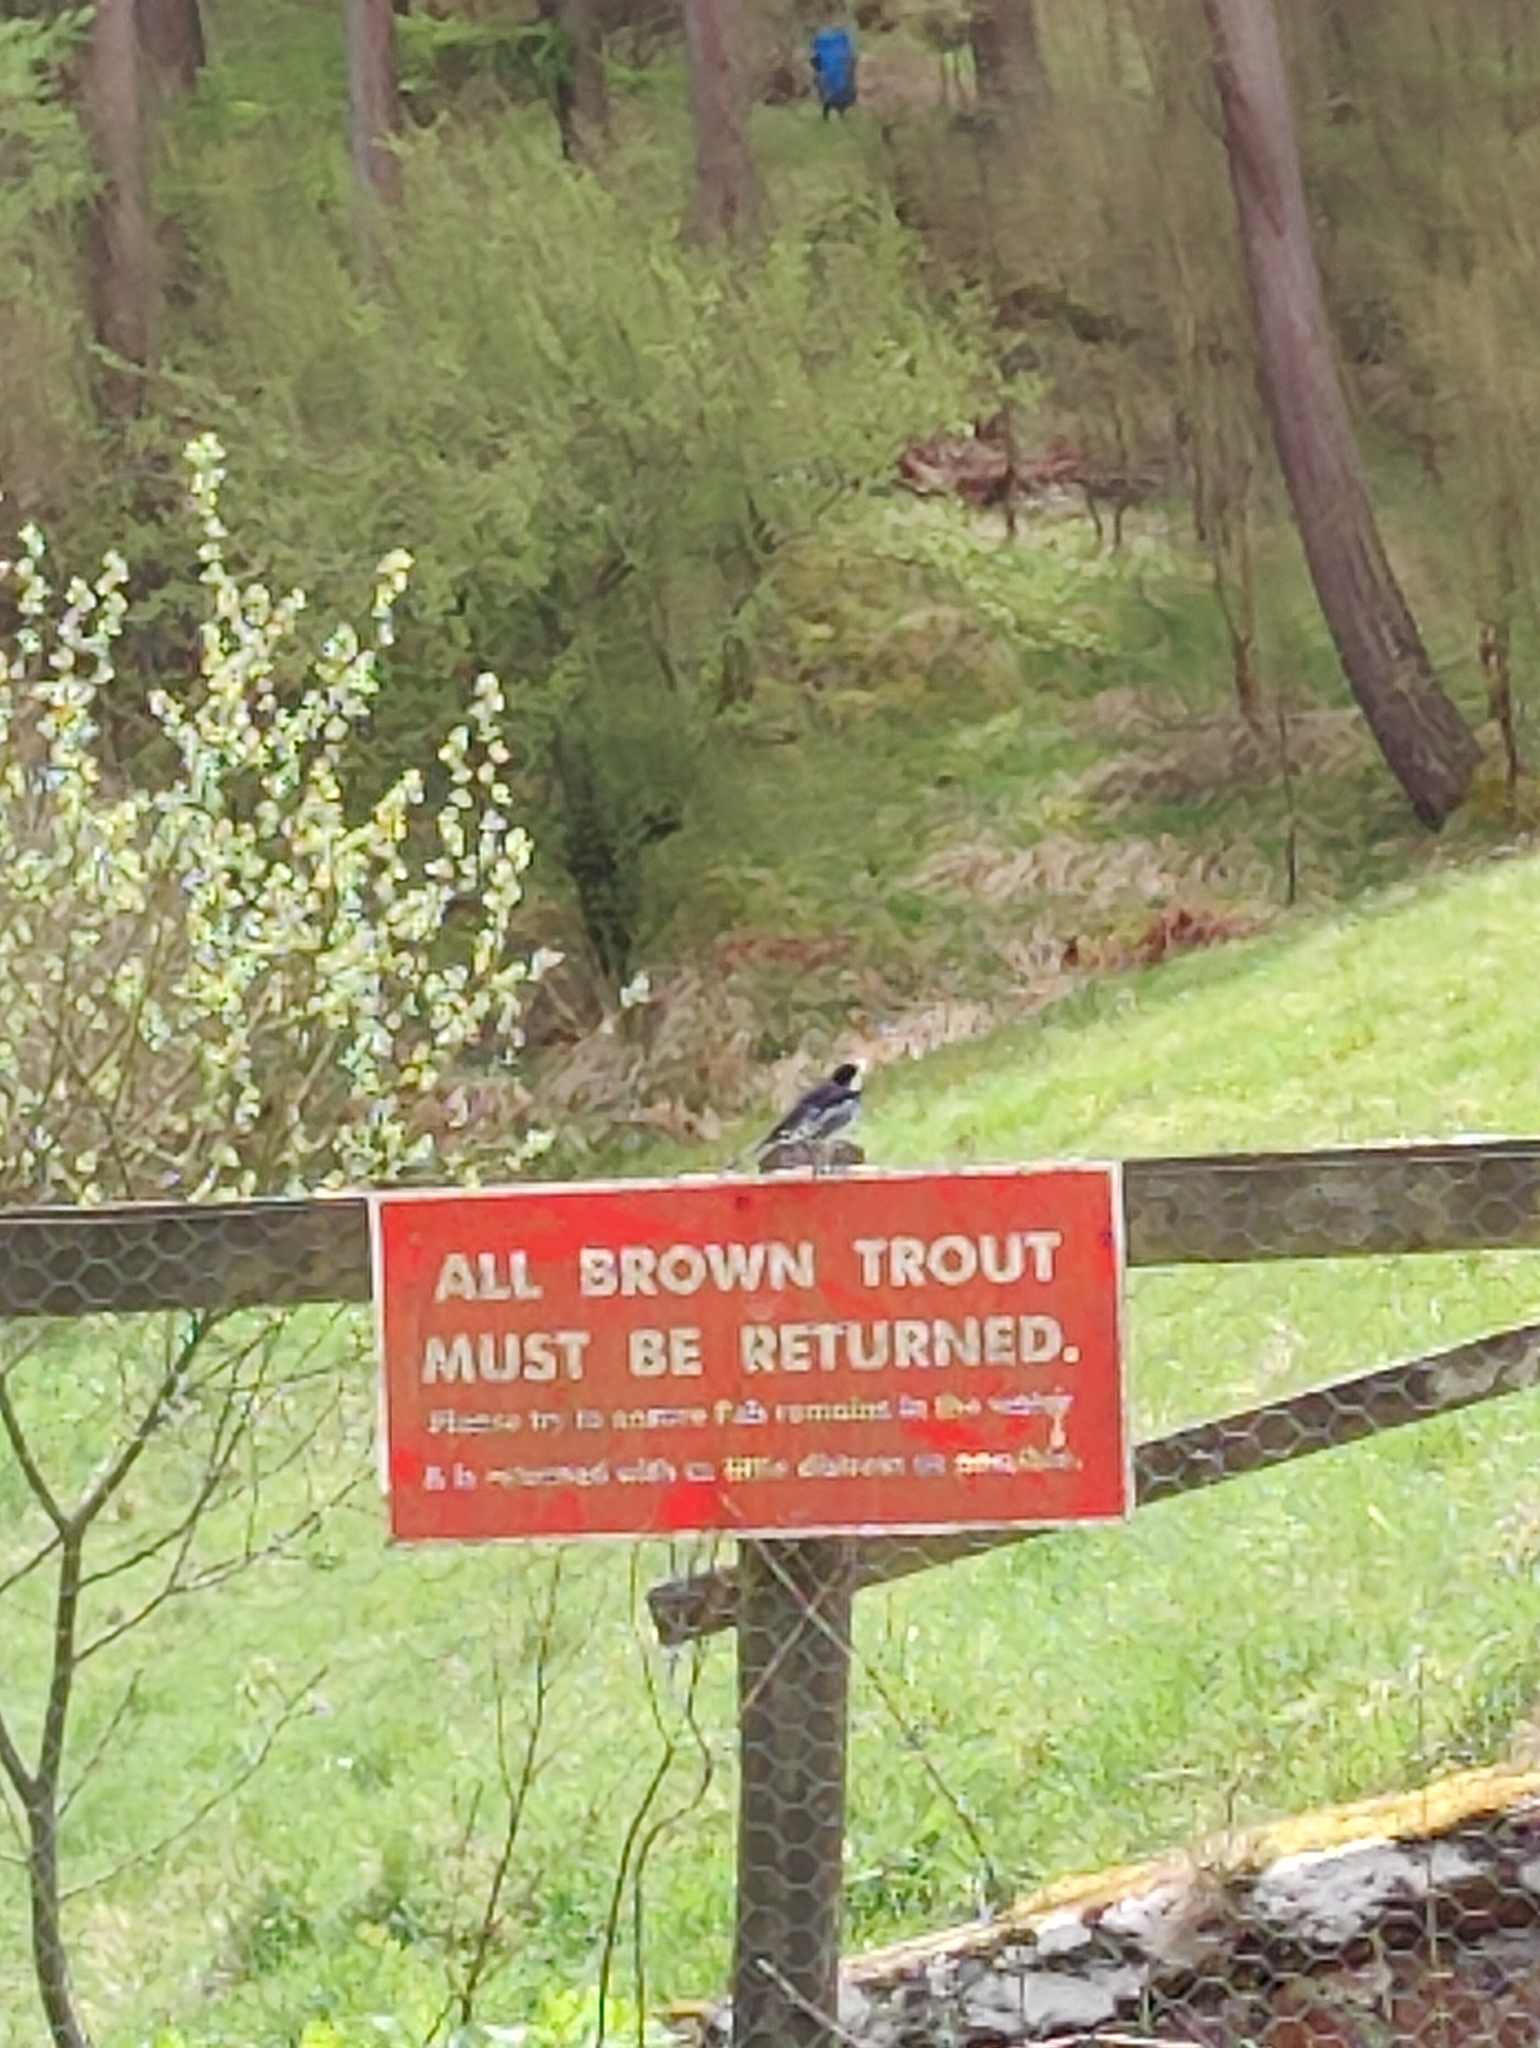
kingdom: Animalia
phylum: Chordata
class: Aves
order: Passeriformes
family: Motacillidae
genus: Motacilla
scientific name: Motacilla alba
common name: White wagtail
